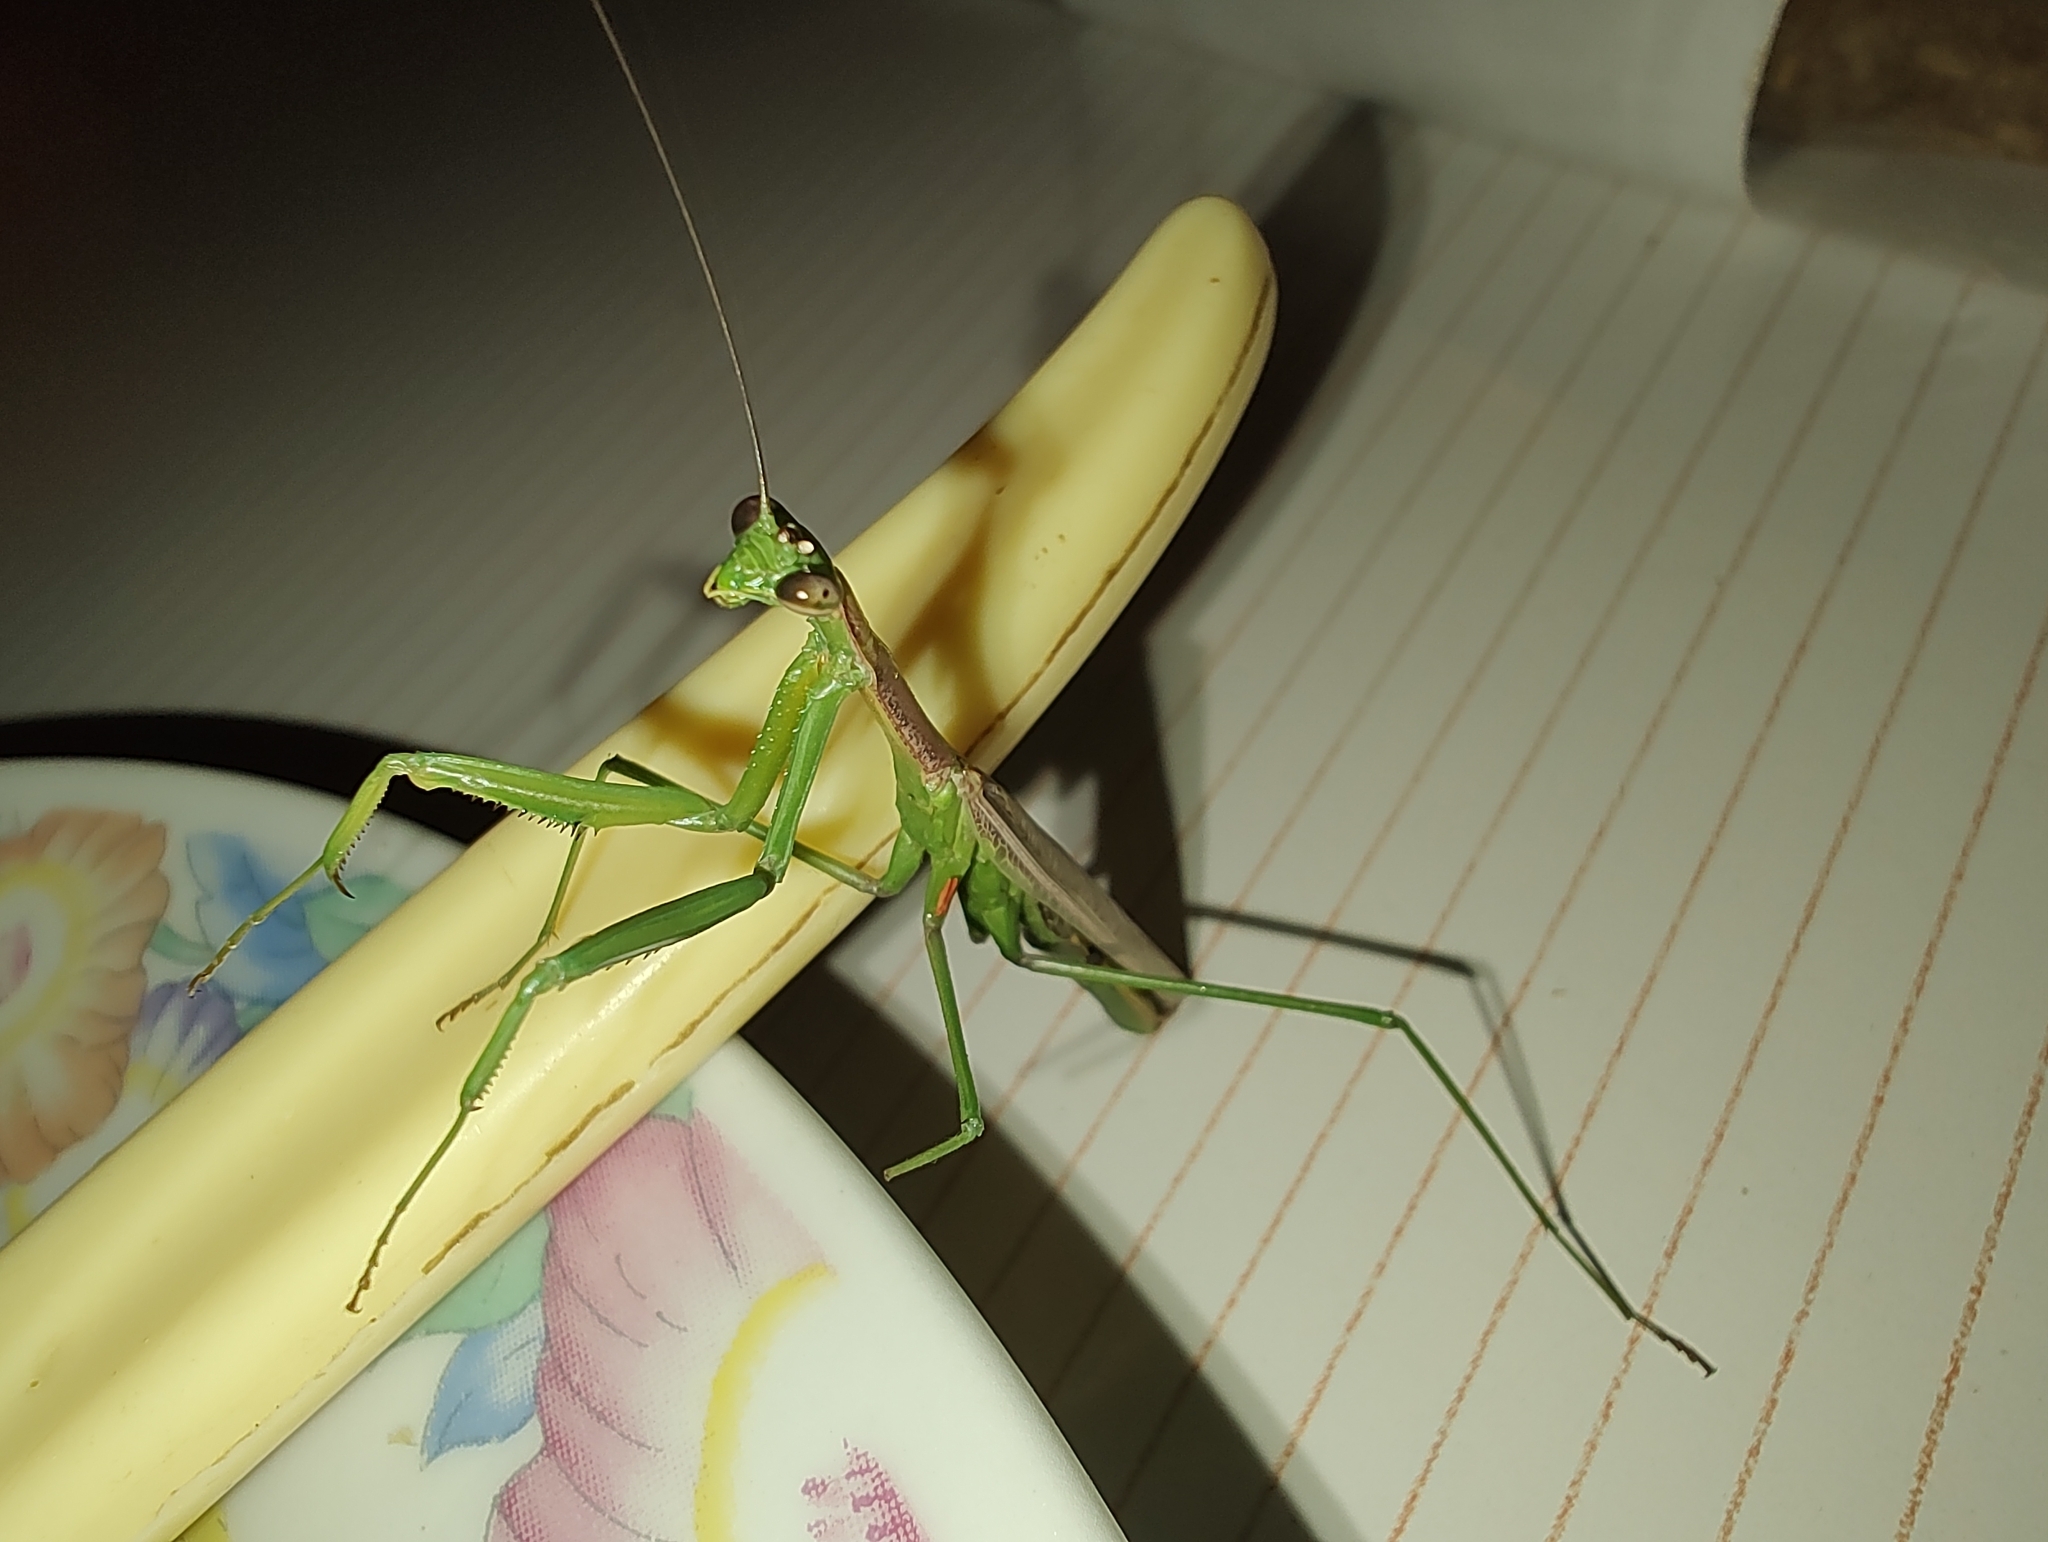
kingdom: Animalia
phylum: Arthropoda
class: Insecta
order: Mantodea
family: Coptopterygidae
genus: Coptopteryx
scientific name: Coptopteryx gayi
